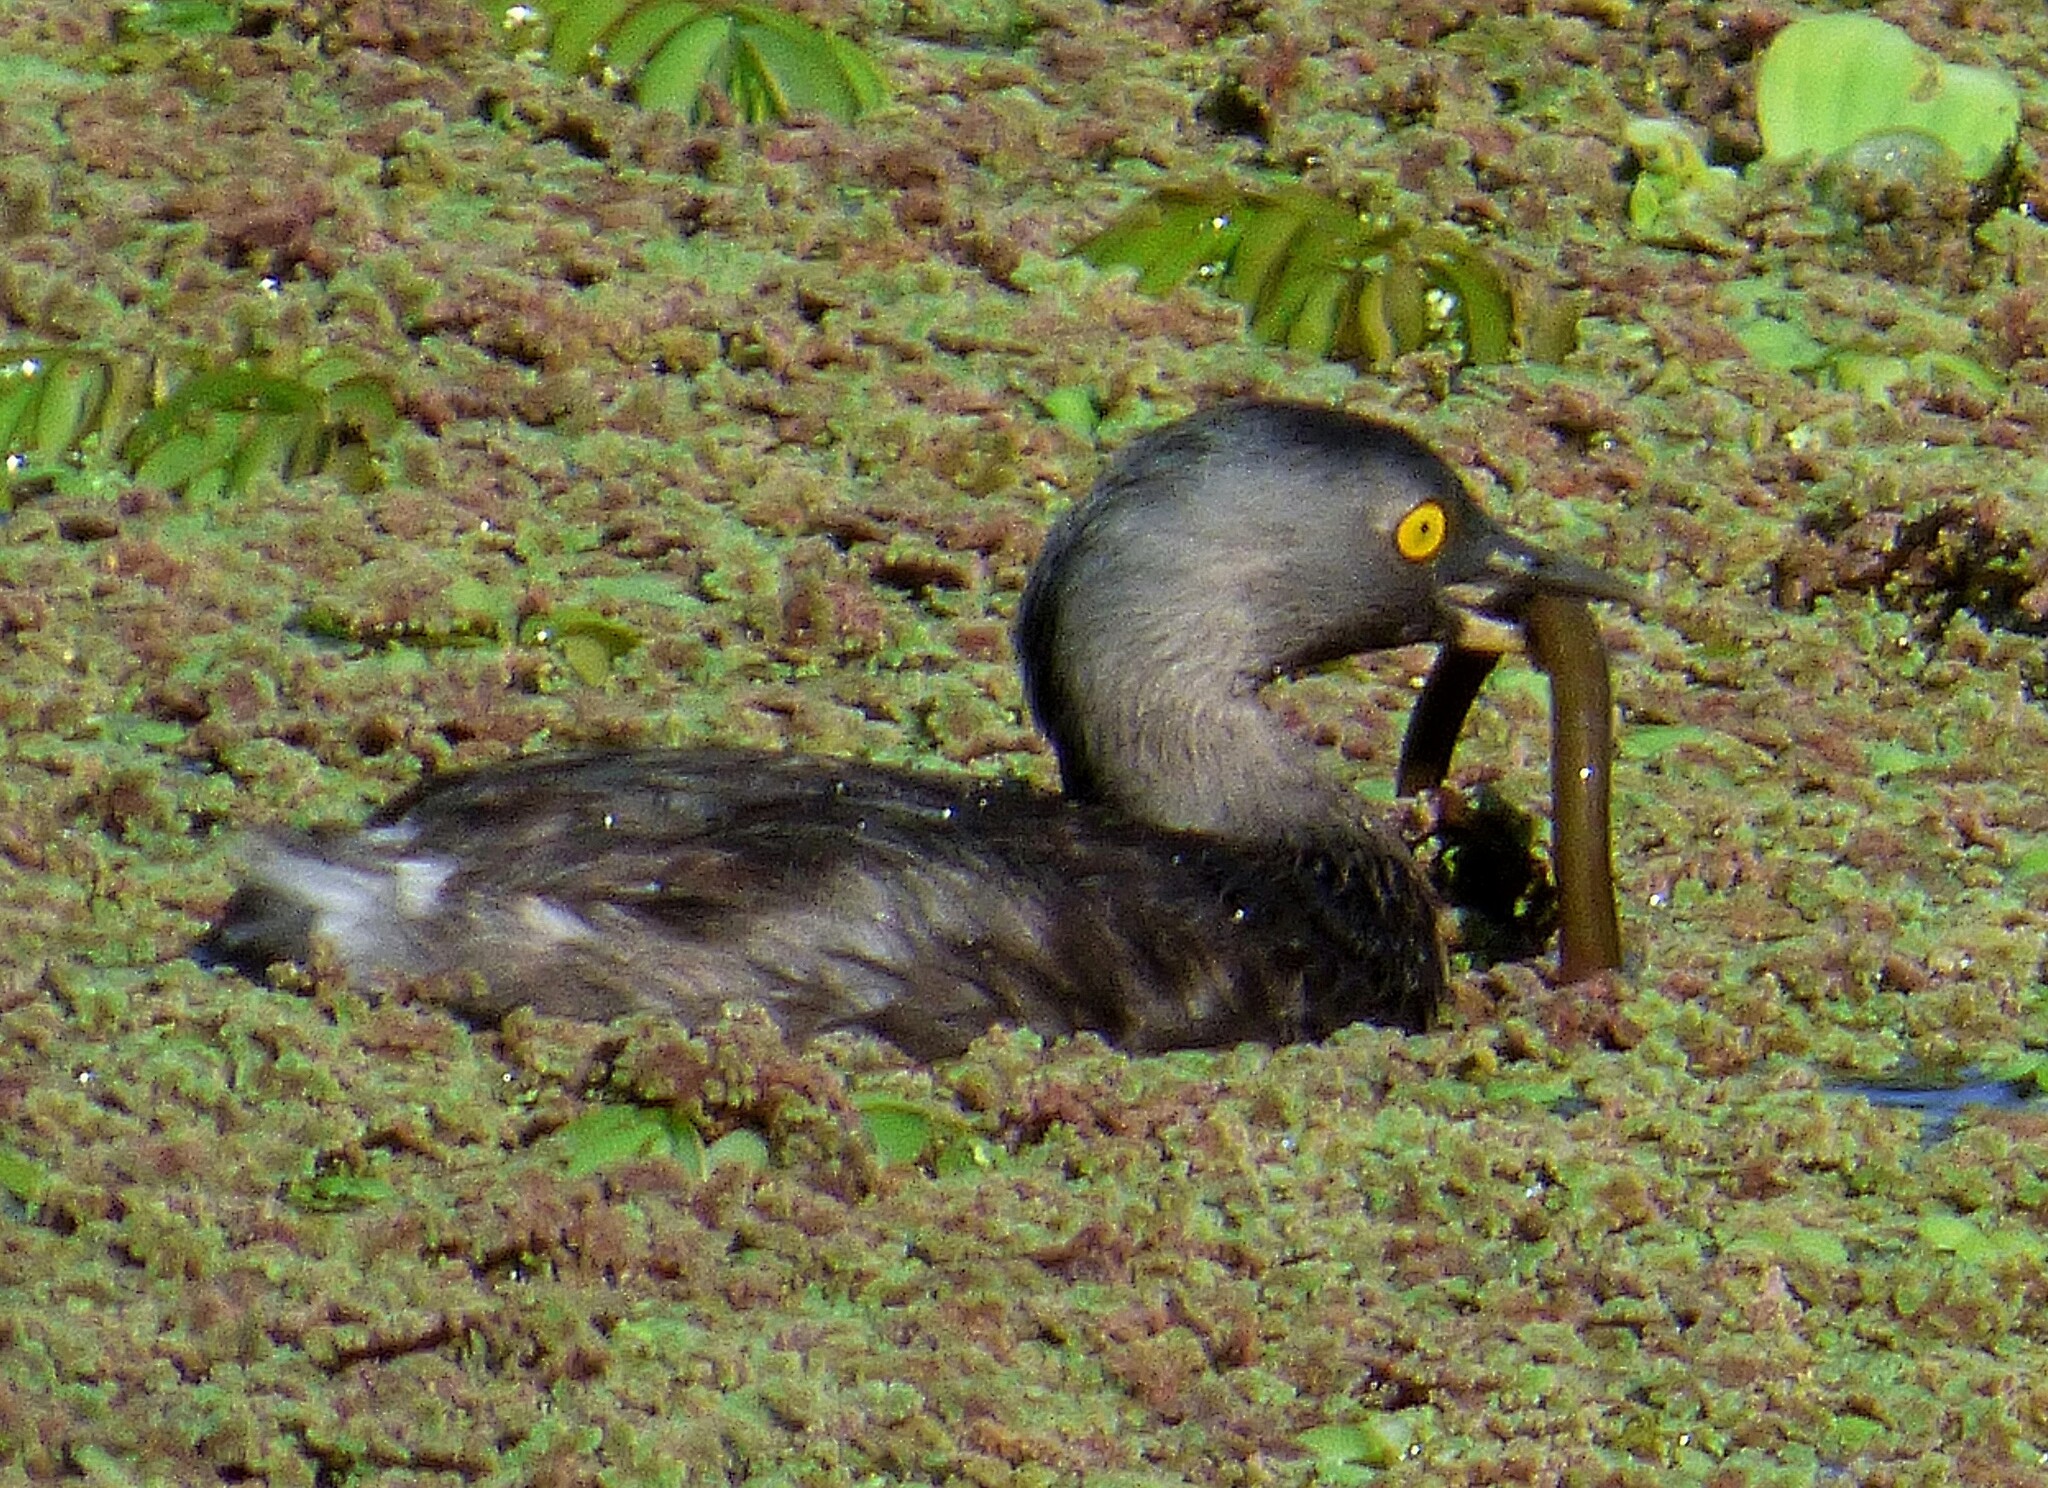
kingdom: Animalia
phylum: Chordata
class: Aves
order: Podicipediformes
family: Podicipedidae
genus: Tachybaptus
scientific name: Tachybaptus dominicus
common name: Least grebe
